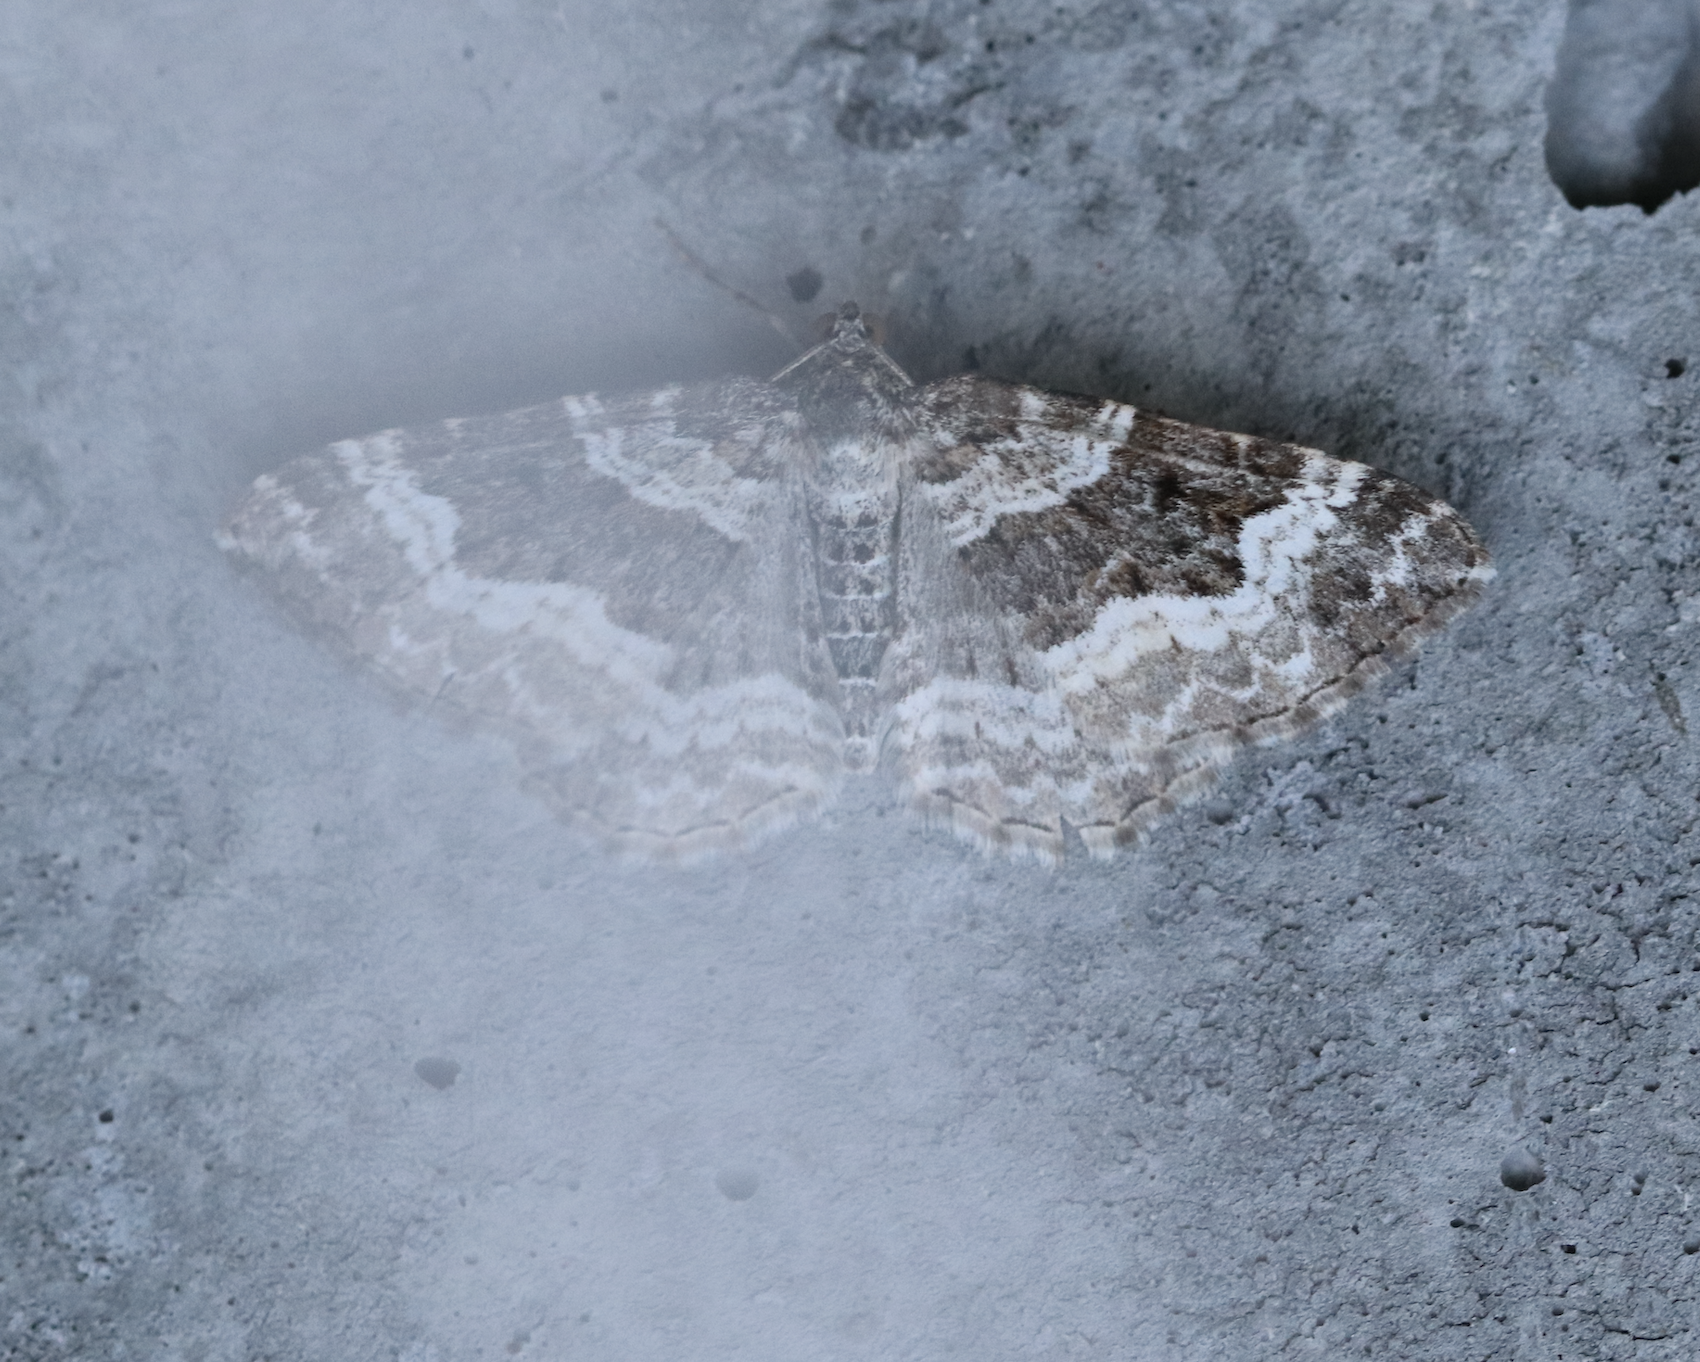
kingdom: Animalia
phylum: Arthropoda
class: Insecta
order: Lepidoptera
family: Geometridae
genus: Epirrhoe
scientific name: Epirrhoe alternata
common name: Common carpet
